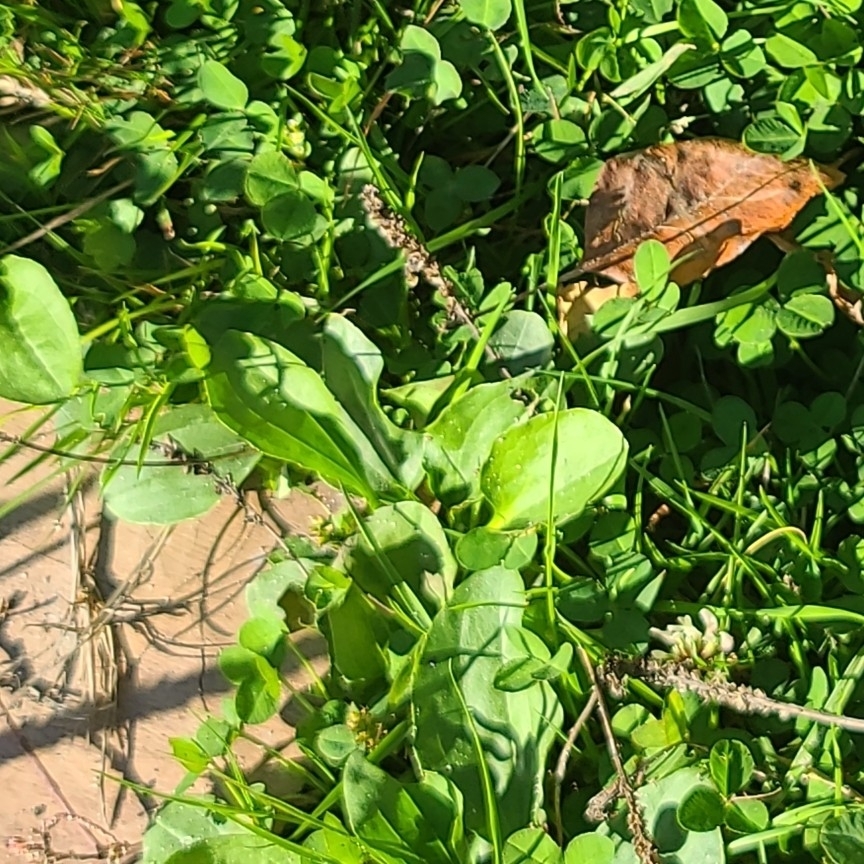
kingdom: Plantae
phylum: Tracheophyta
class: Magnoliopsida
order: Lamiales
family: Plantaginaceae
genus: Plantago
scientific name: Plantago major
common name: Common plantain
